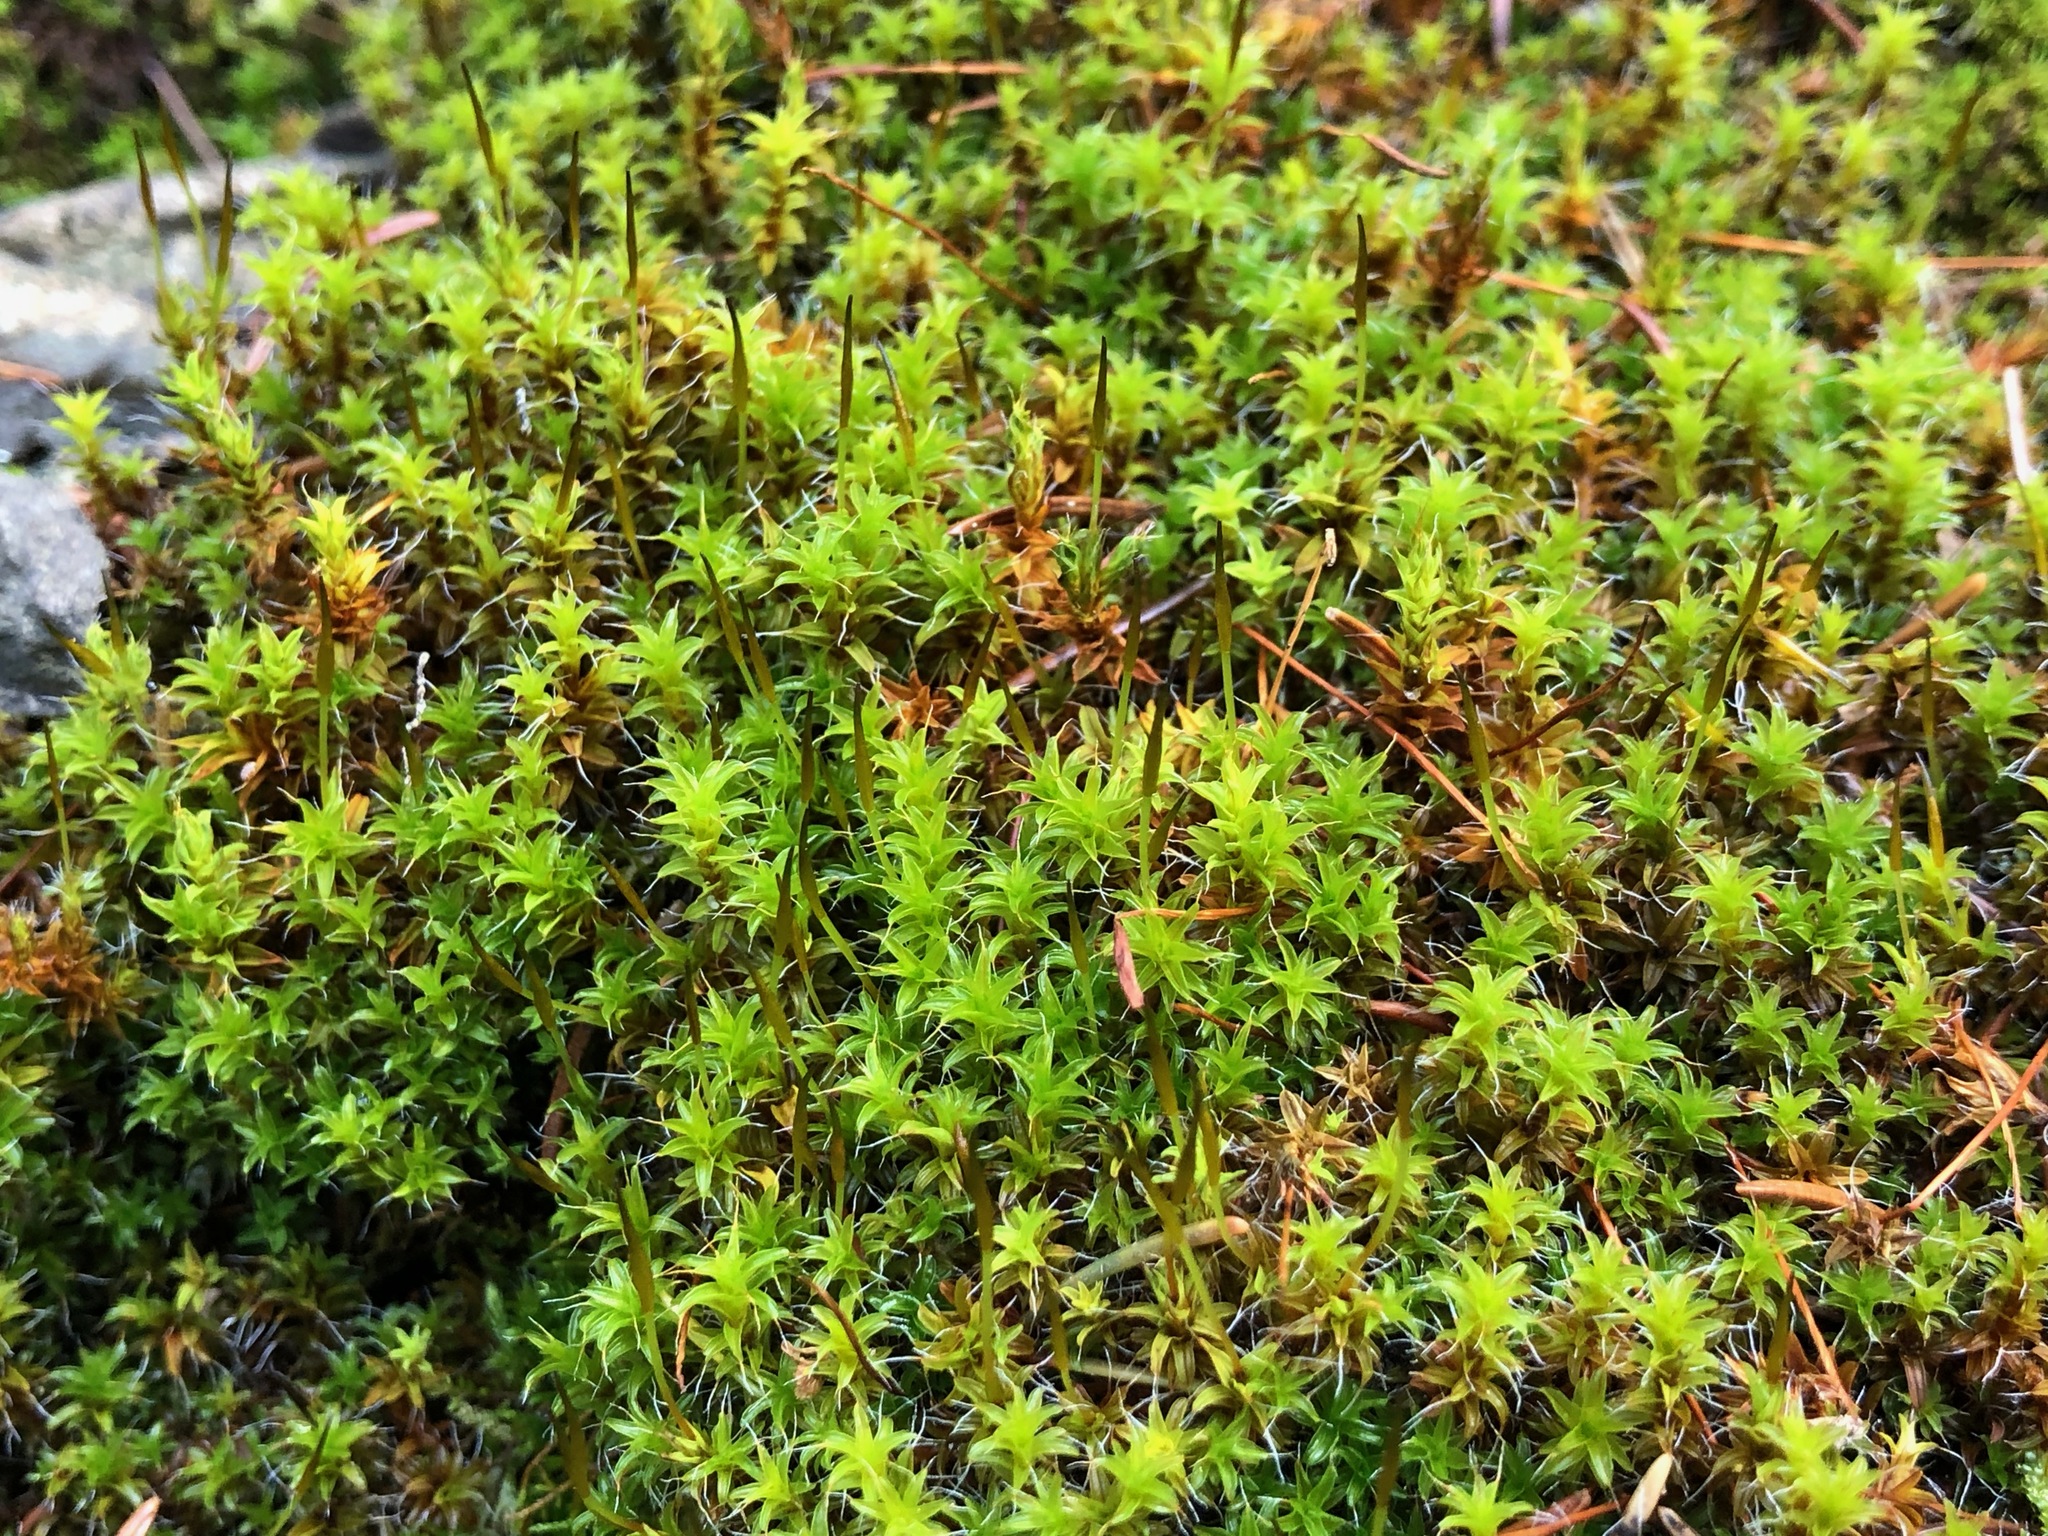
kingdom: Plantae
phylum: Bryophyta
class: Bryopsida
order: Pottiales
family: Pottiaceae
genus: Syntrichia
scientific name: Syntrichia ruralis
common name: Sidewalk screw moss
